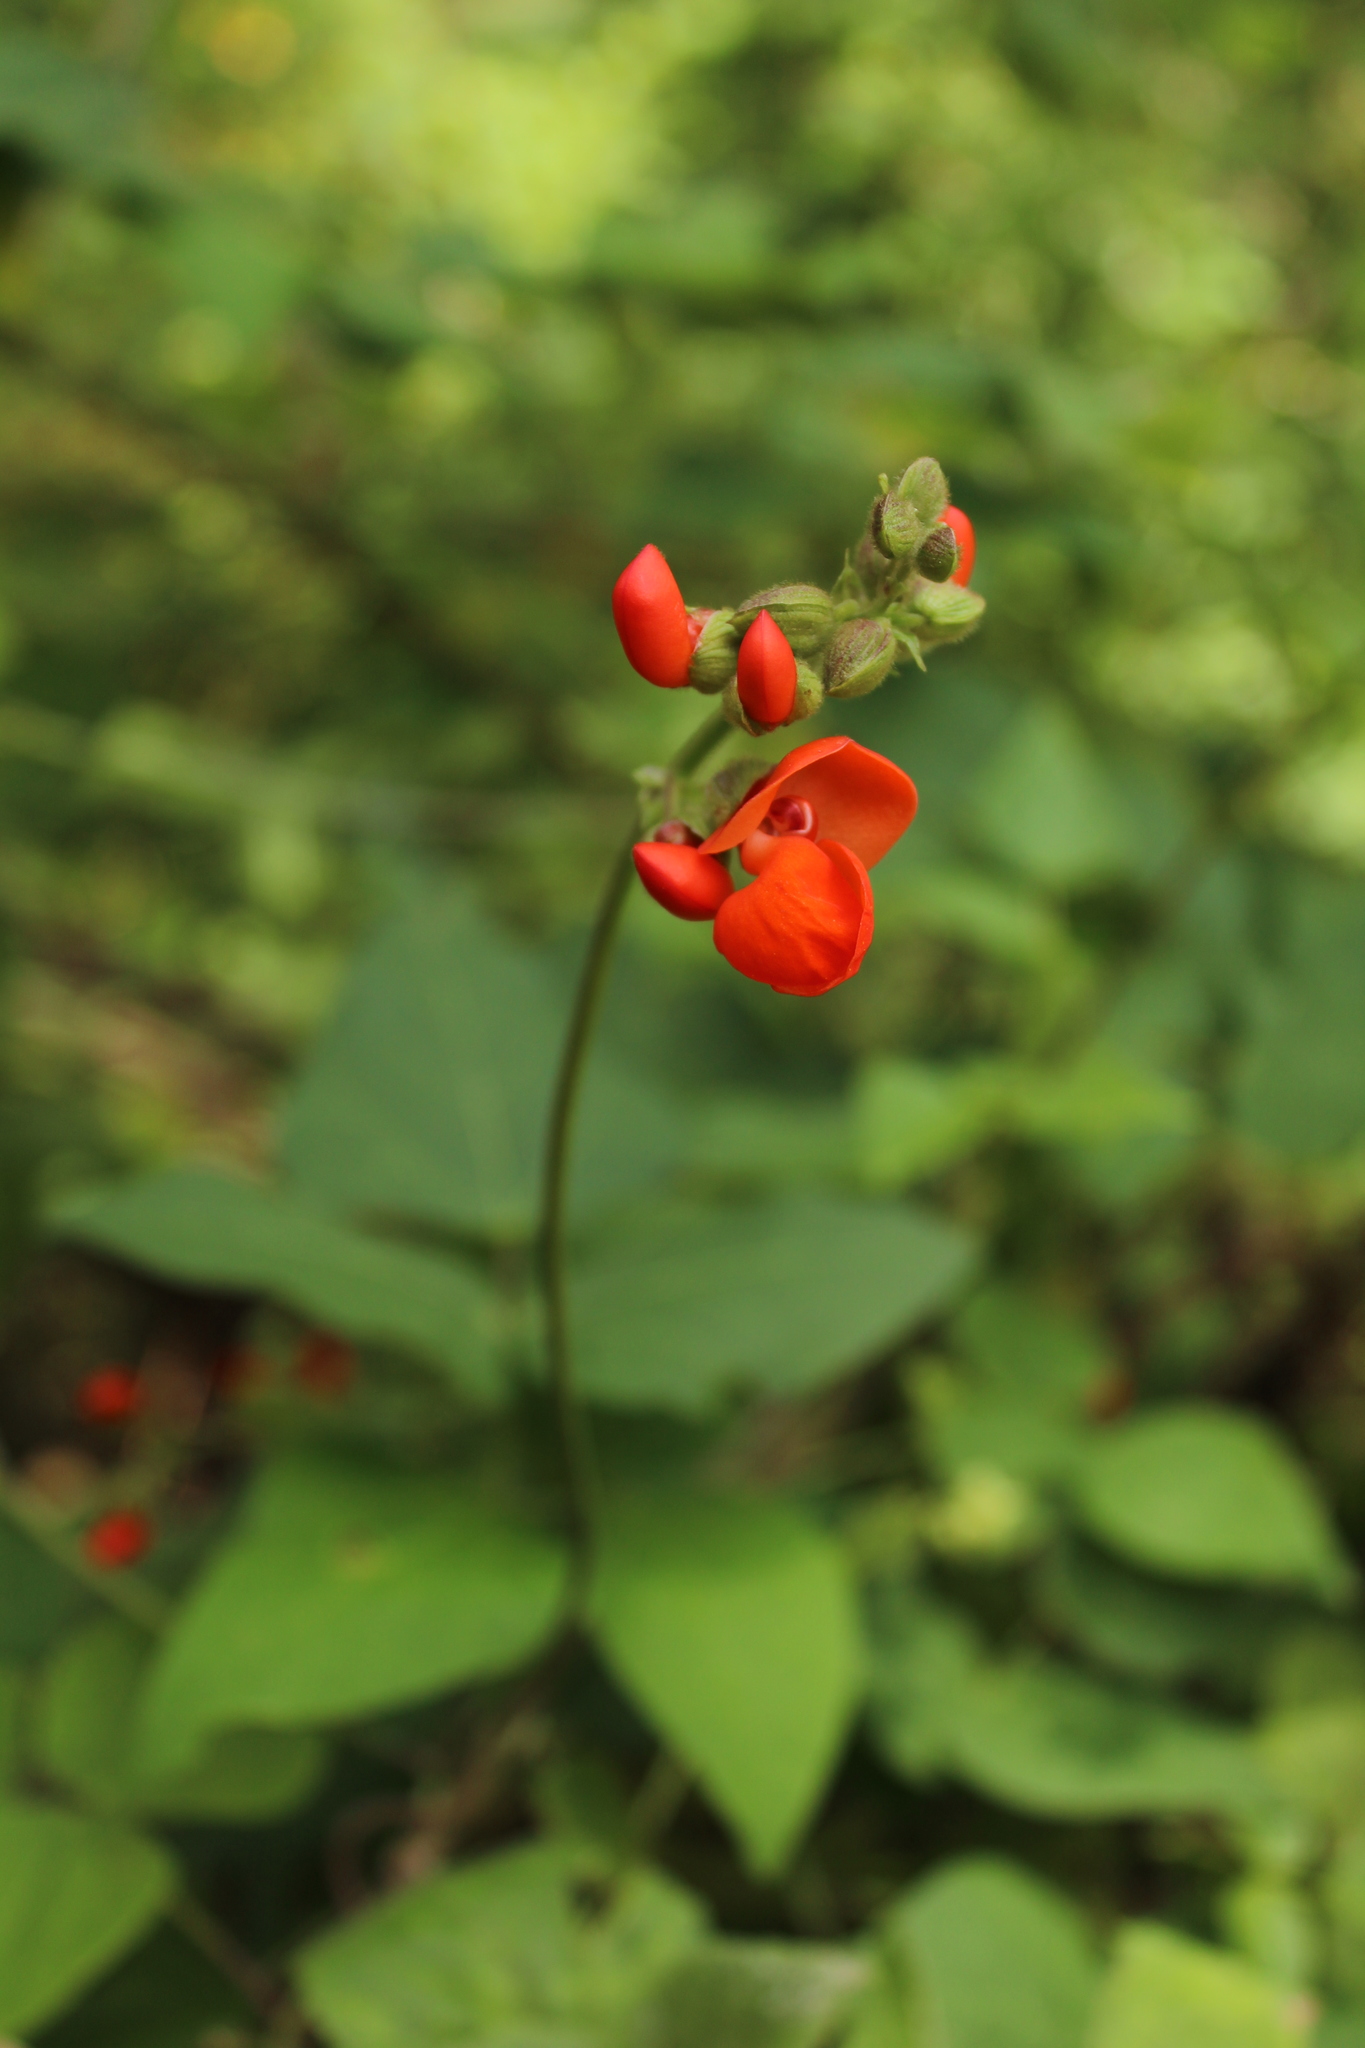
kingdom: Plantae
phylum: Tracheophyta
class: Magnoliopsida
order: Fabales
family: Fabaceae
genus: Phaseolus
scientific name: Phaseolus coccineus
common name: Runner bean
